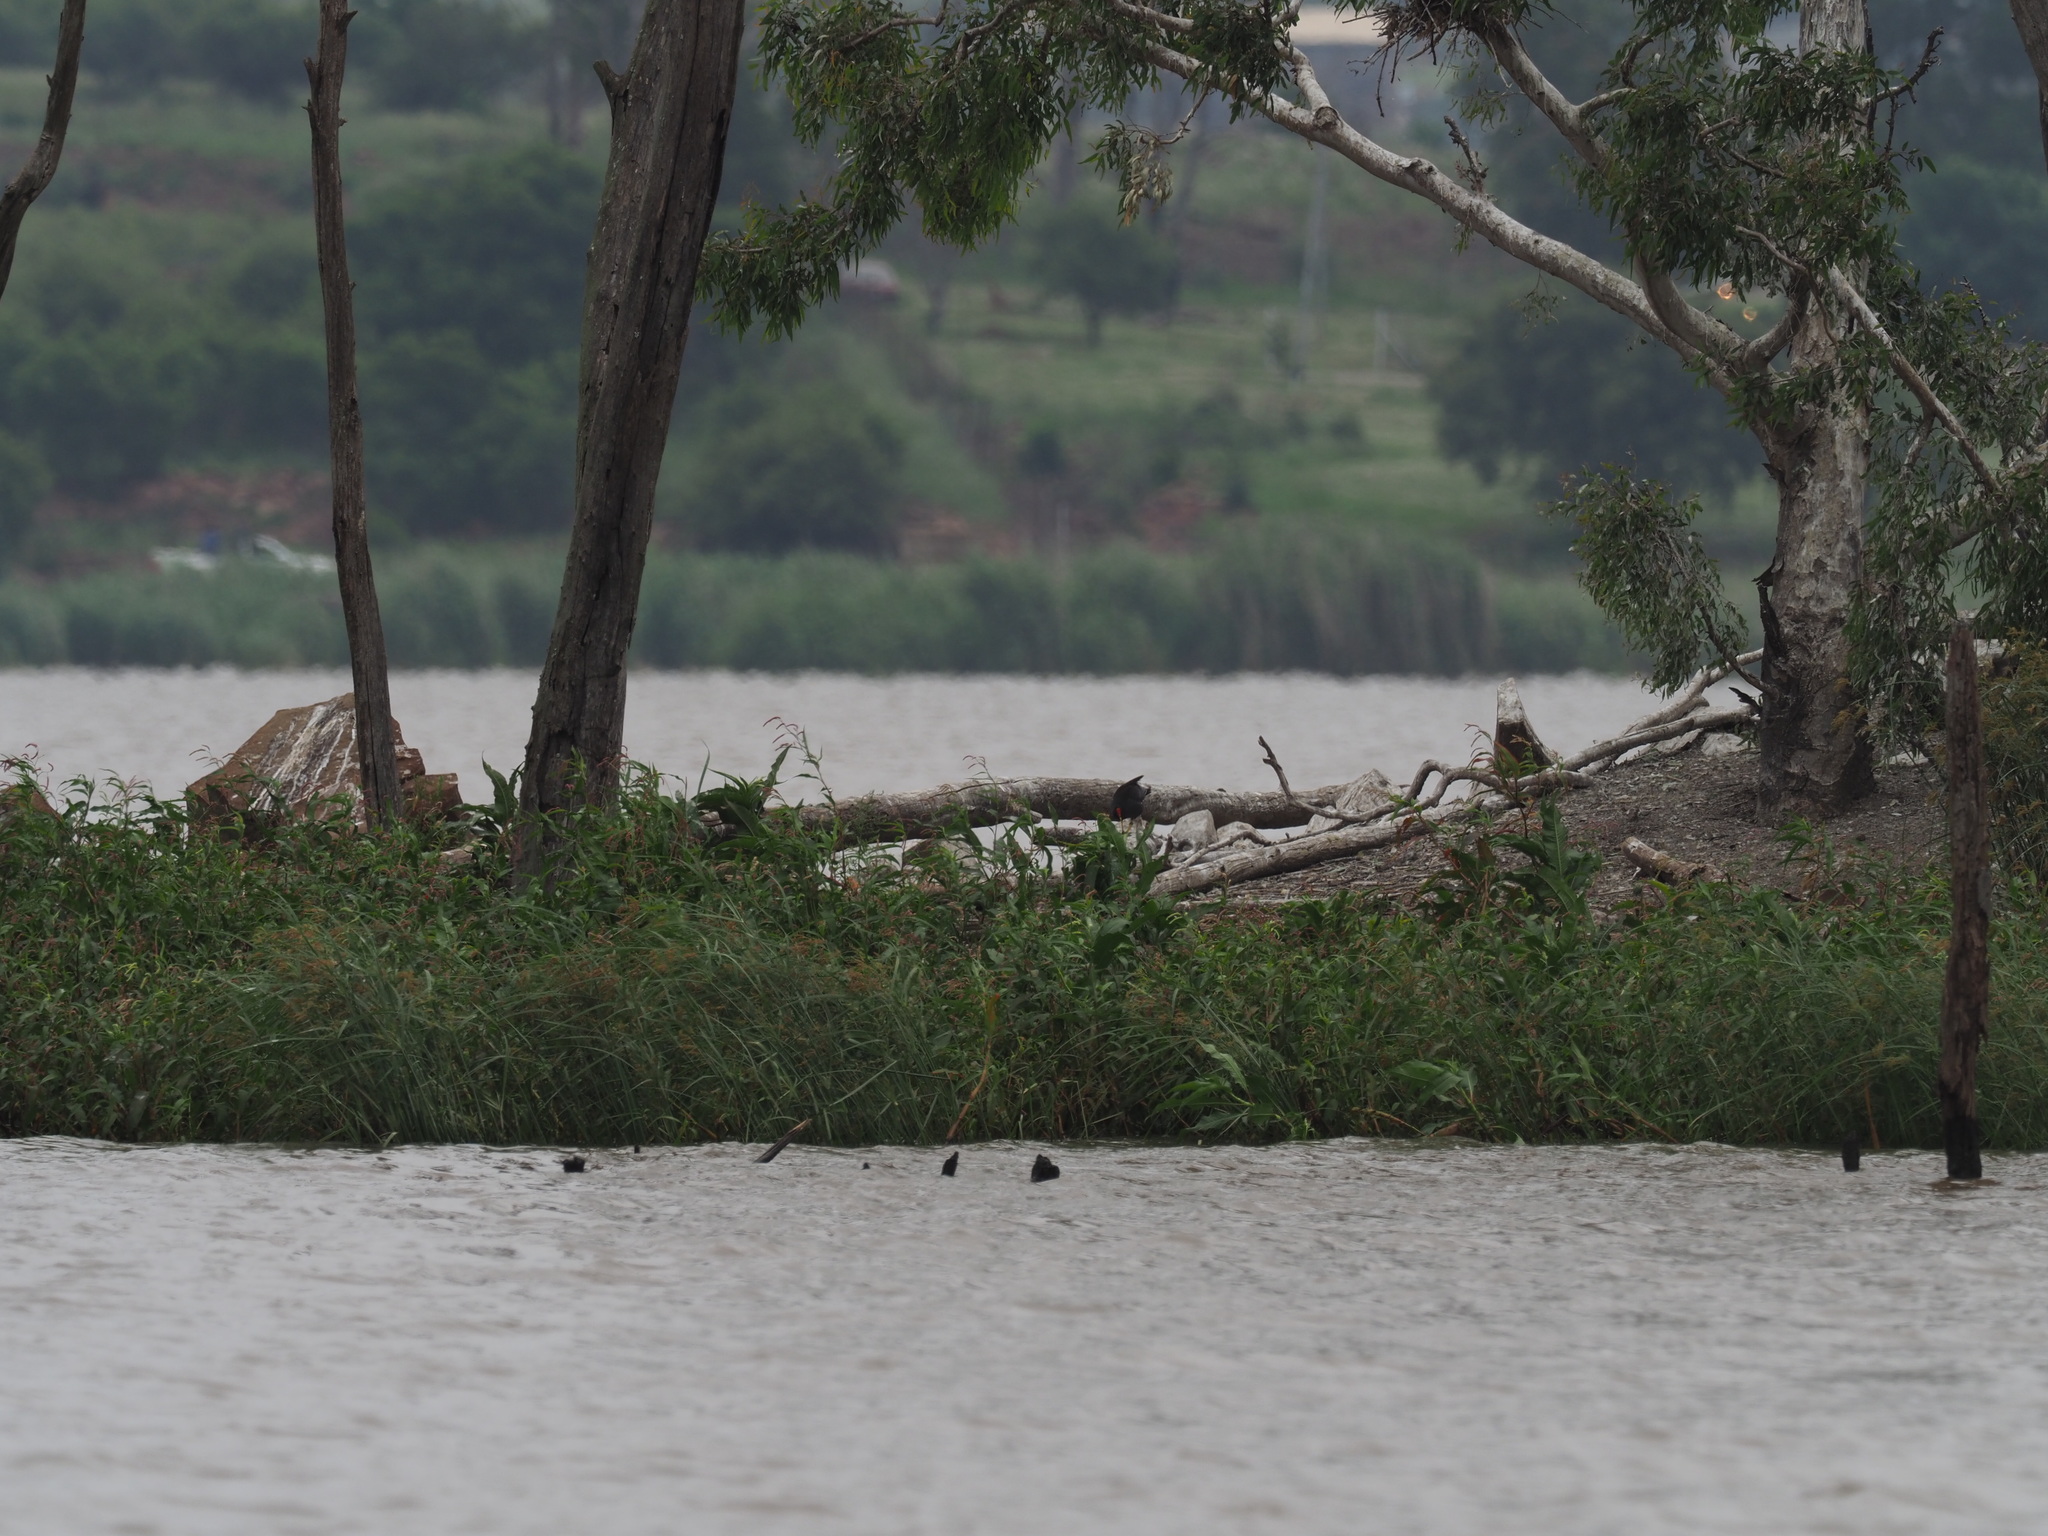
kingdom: Animalia
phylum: Chordata
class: Aves
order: Gruiformes
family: Rallidae
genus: Gallinula
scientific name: Gallinula chloropus
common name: Common moorhen
